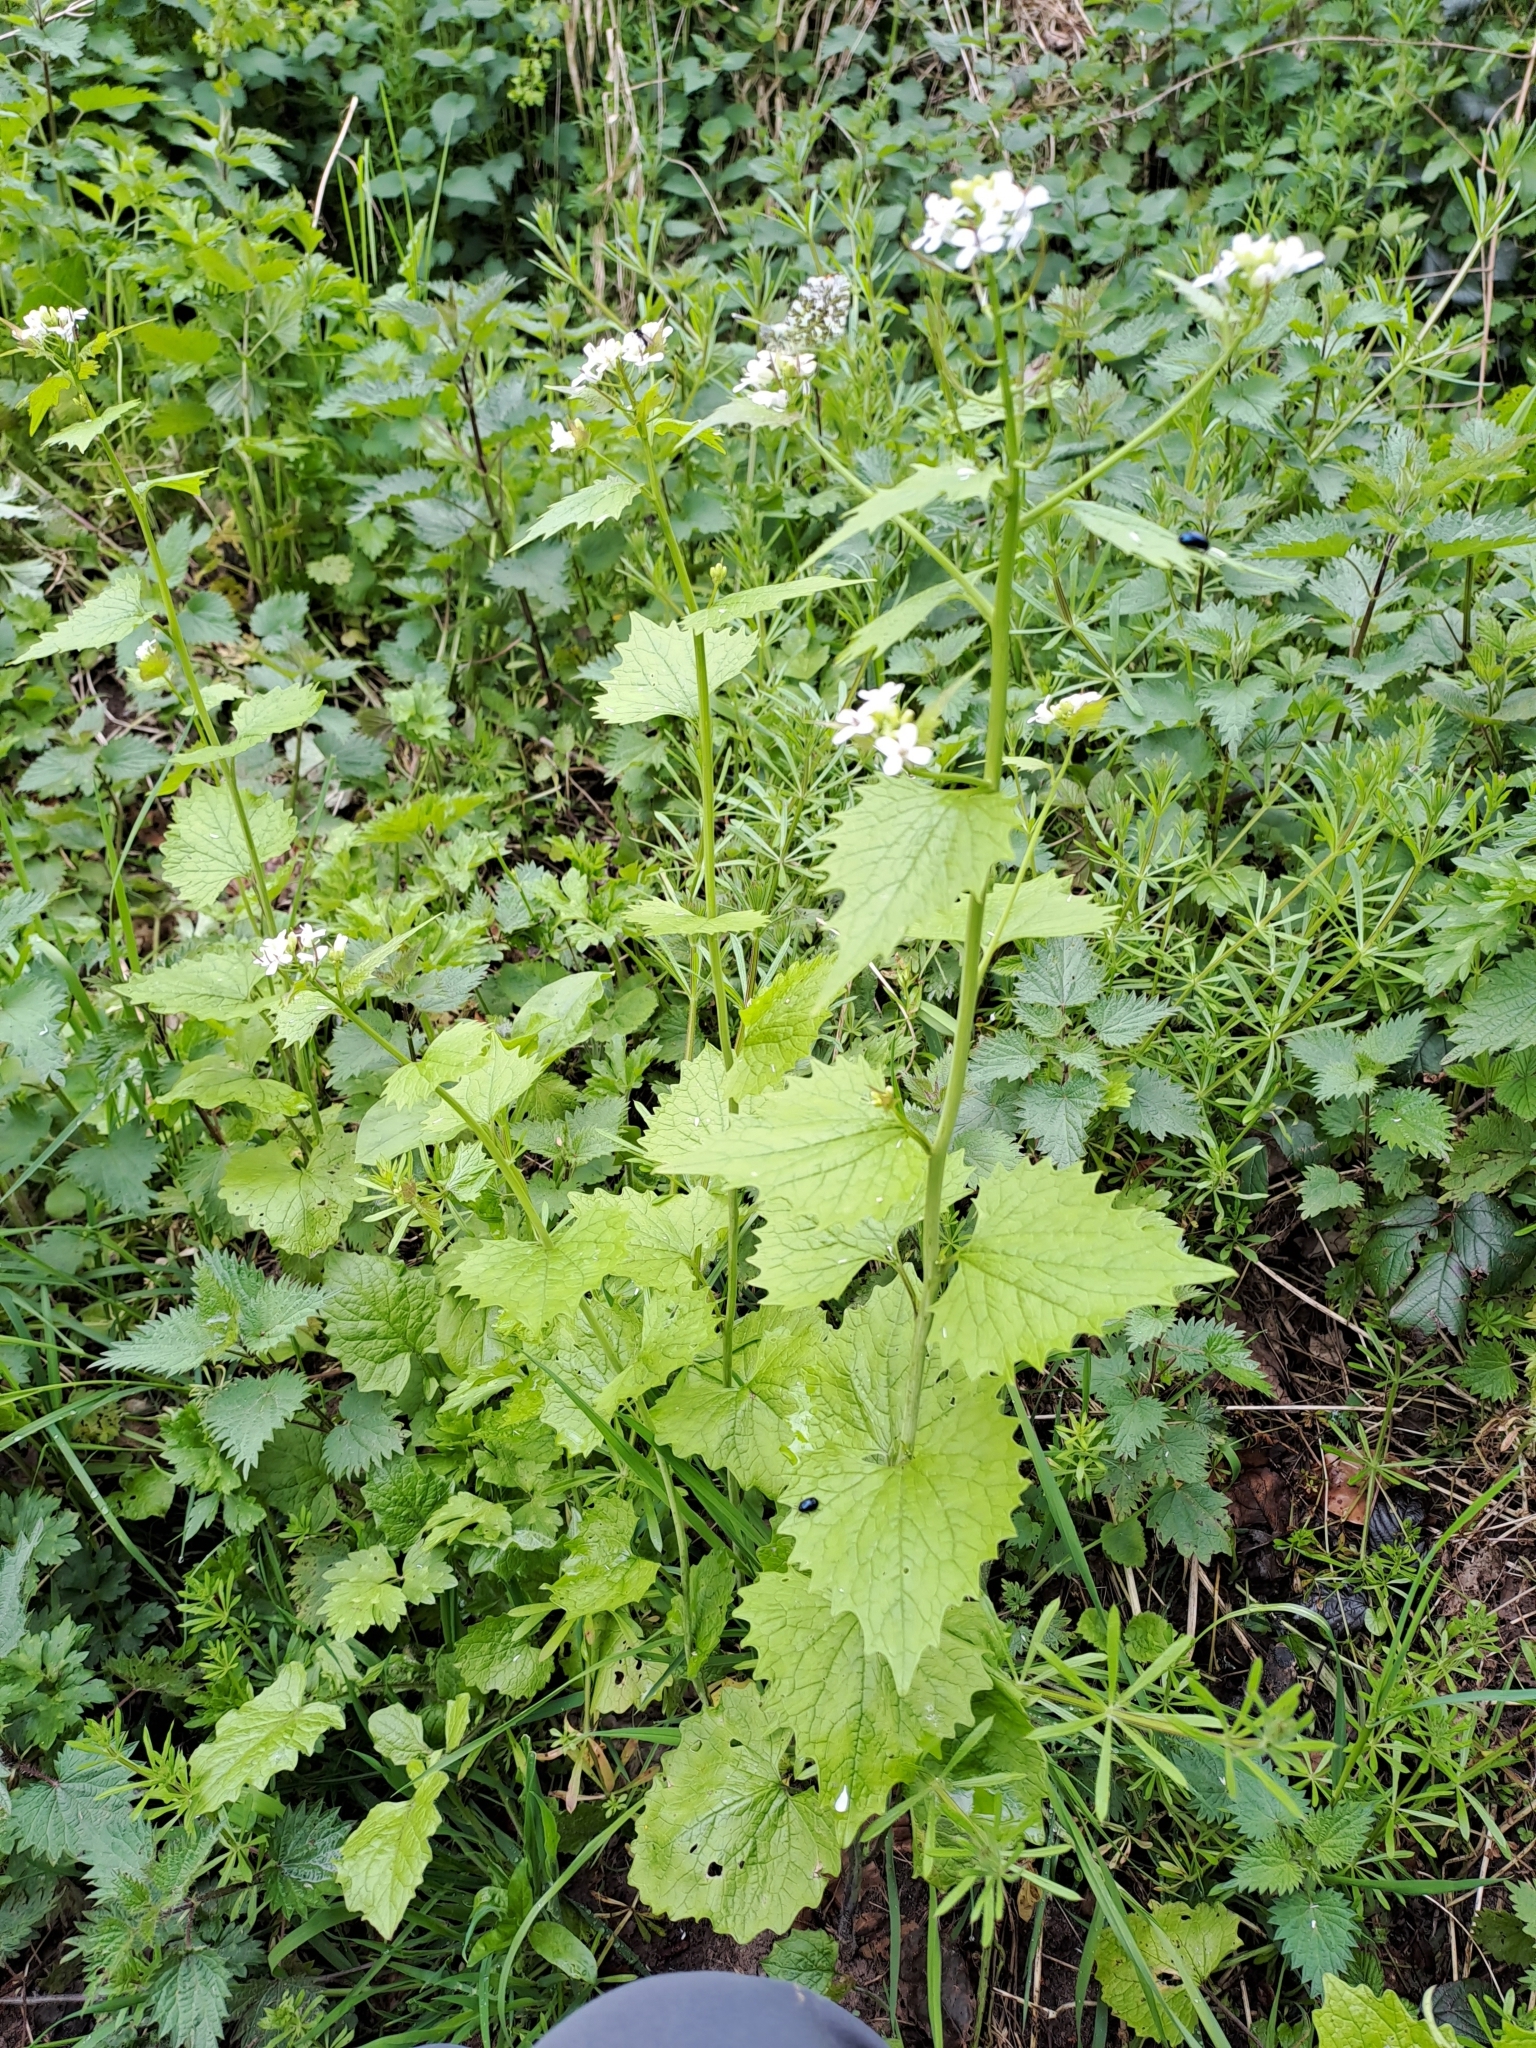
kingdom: Plantae
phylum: Tracheophyta
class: Magnoliopsida
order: Brassicales
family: Brassicaceae
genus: Alliaria
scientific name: Alliaria petiolata
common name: Garlic mustard
